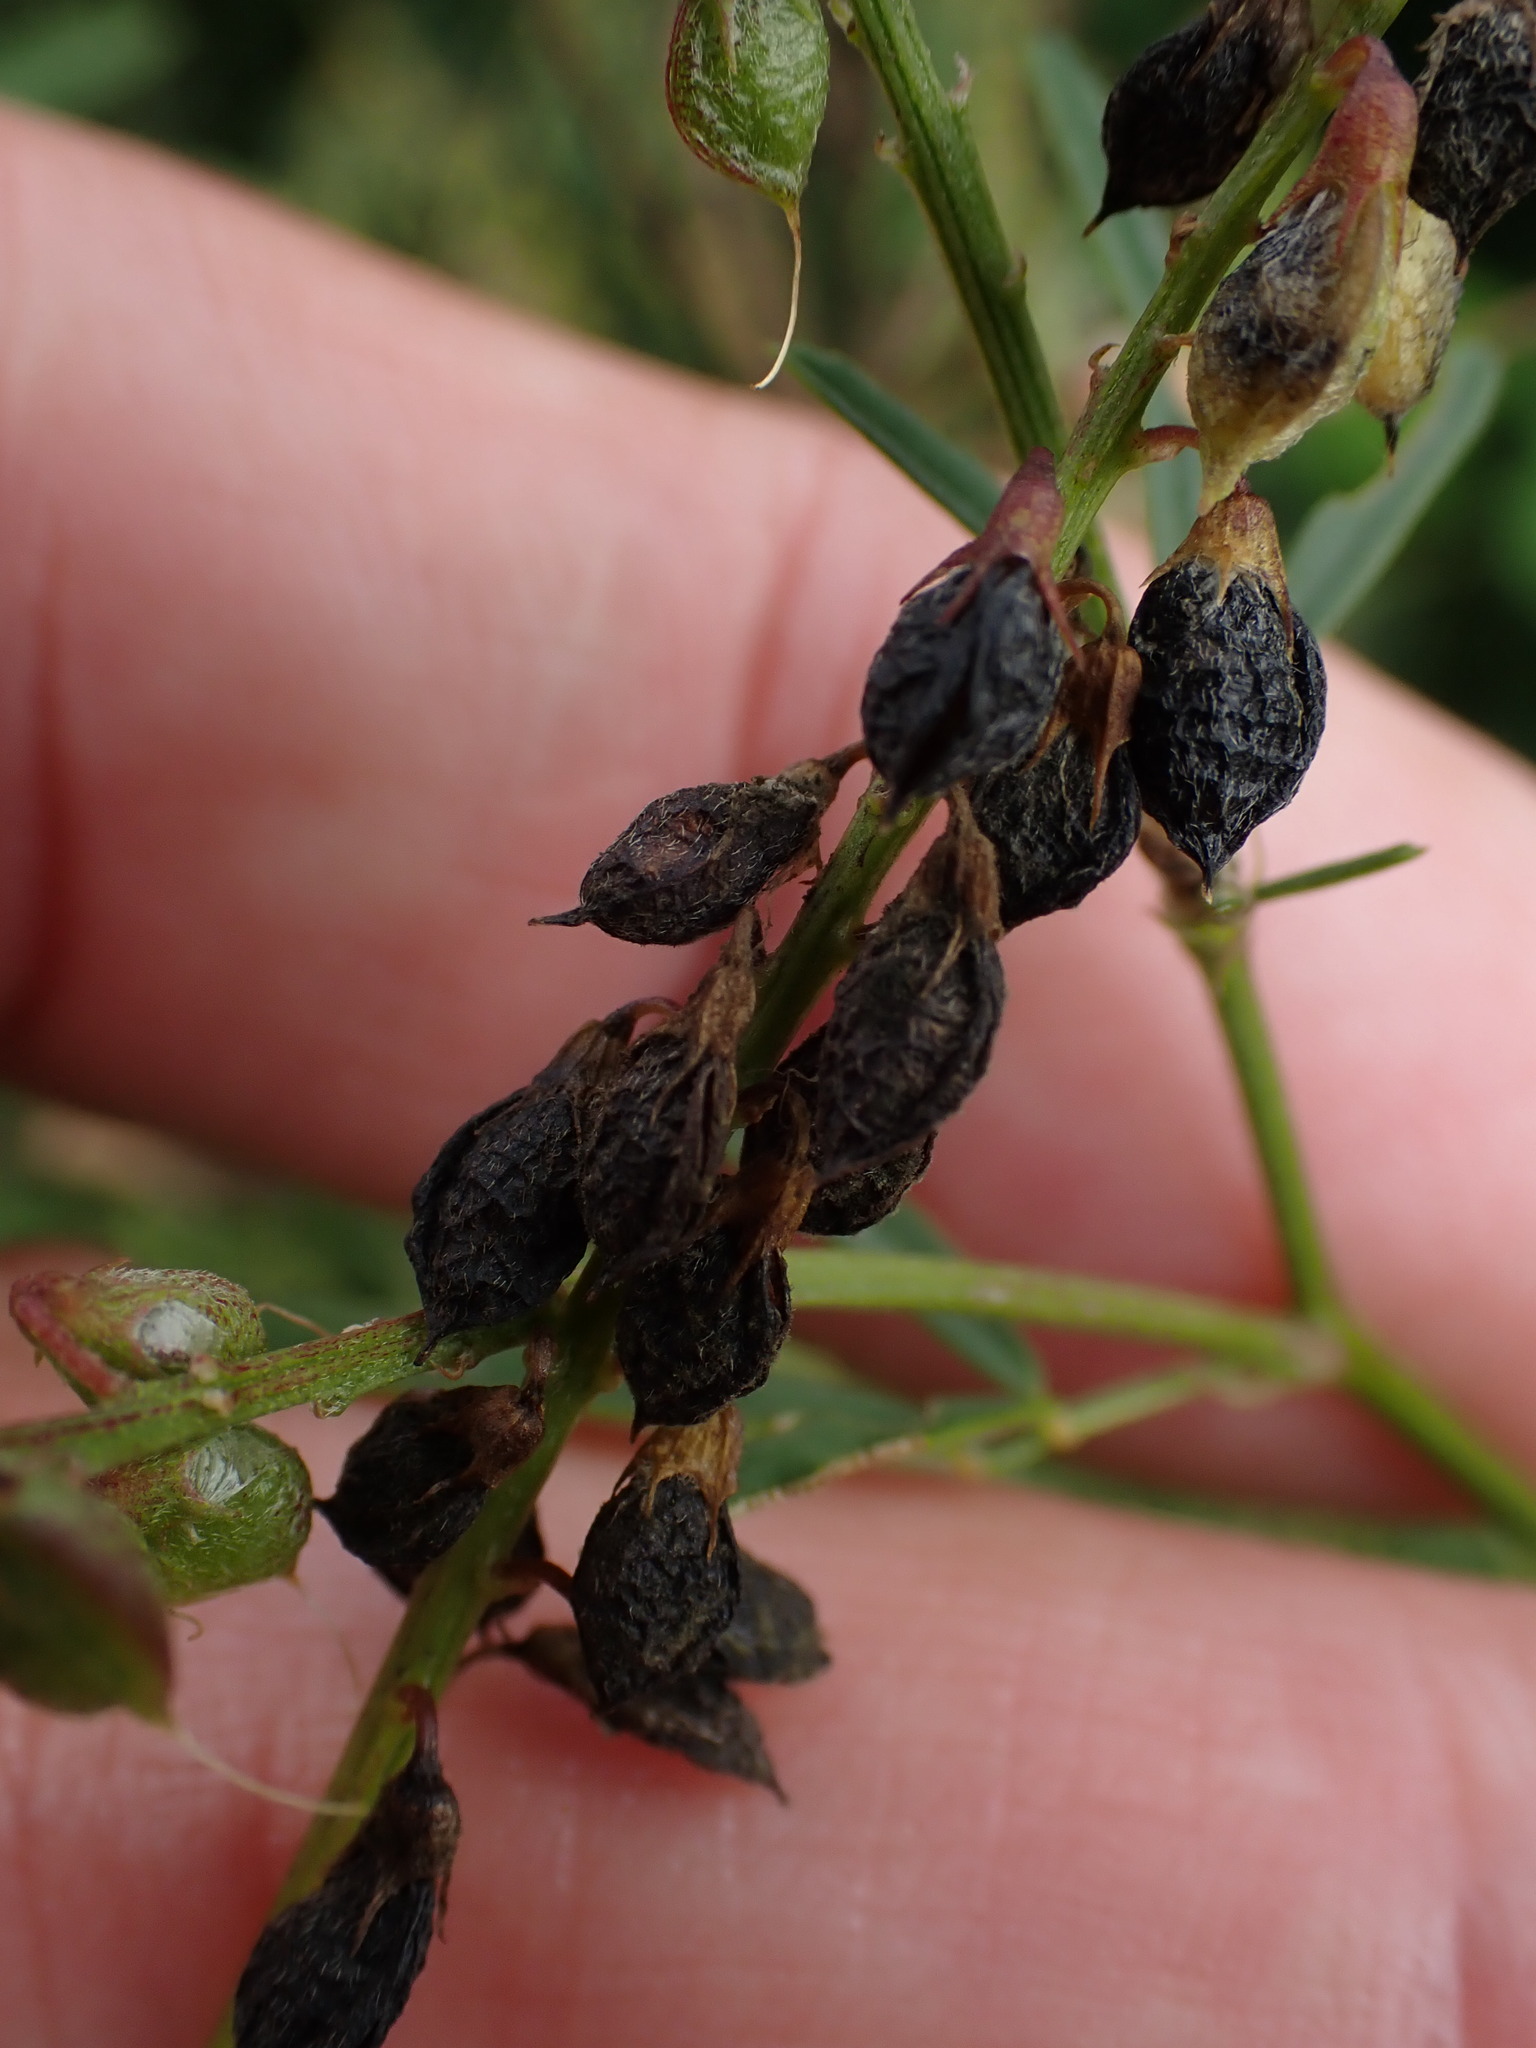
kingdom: Plantae
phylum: Tracheophyta
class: Magnoliopsida
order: Fabales
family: Fabaceae
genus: Melilotus
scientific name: Melilotus altissimus
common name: Tall melilot
